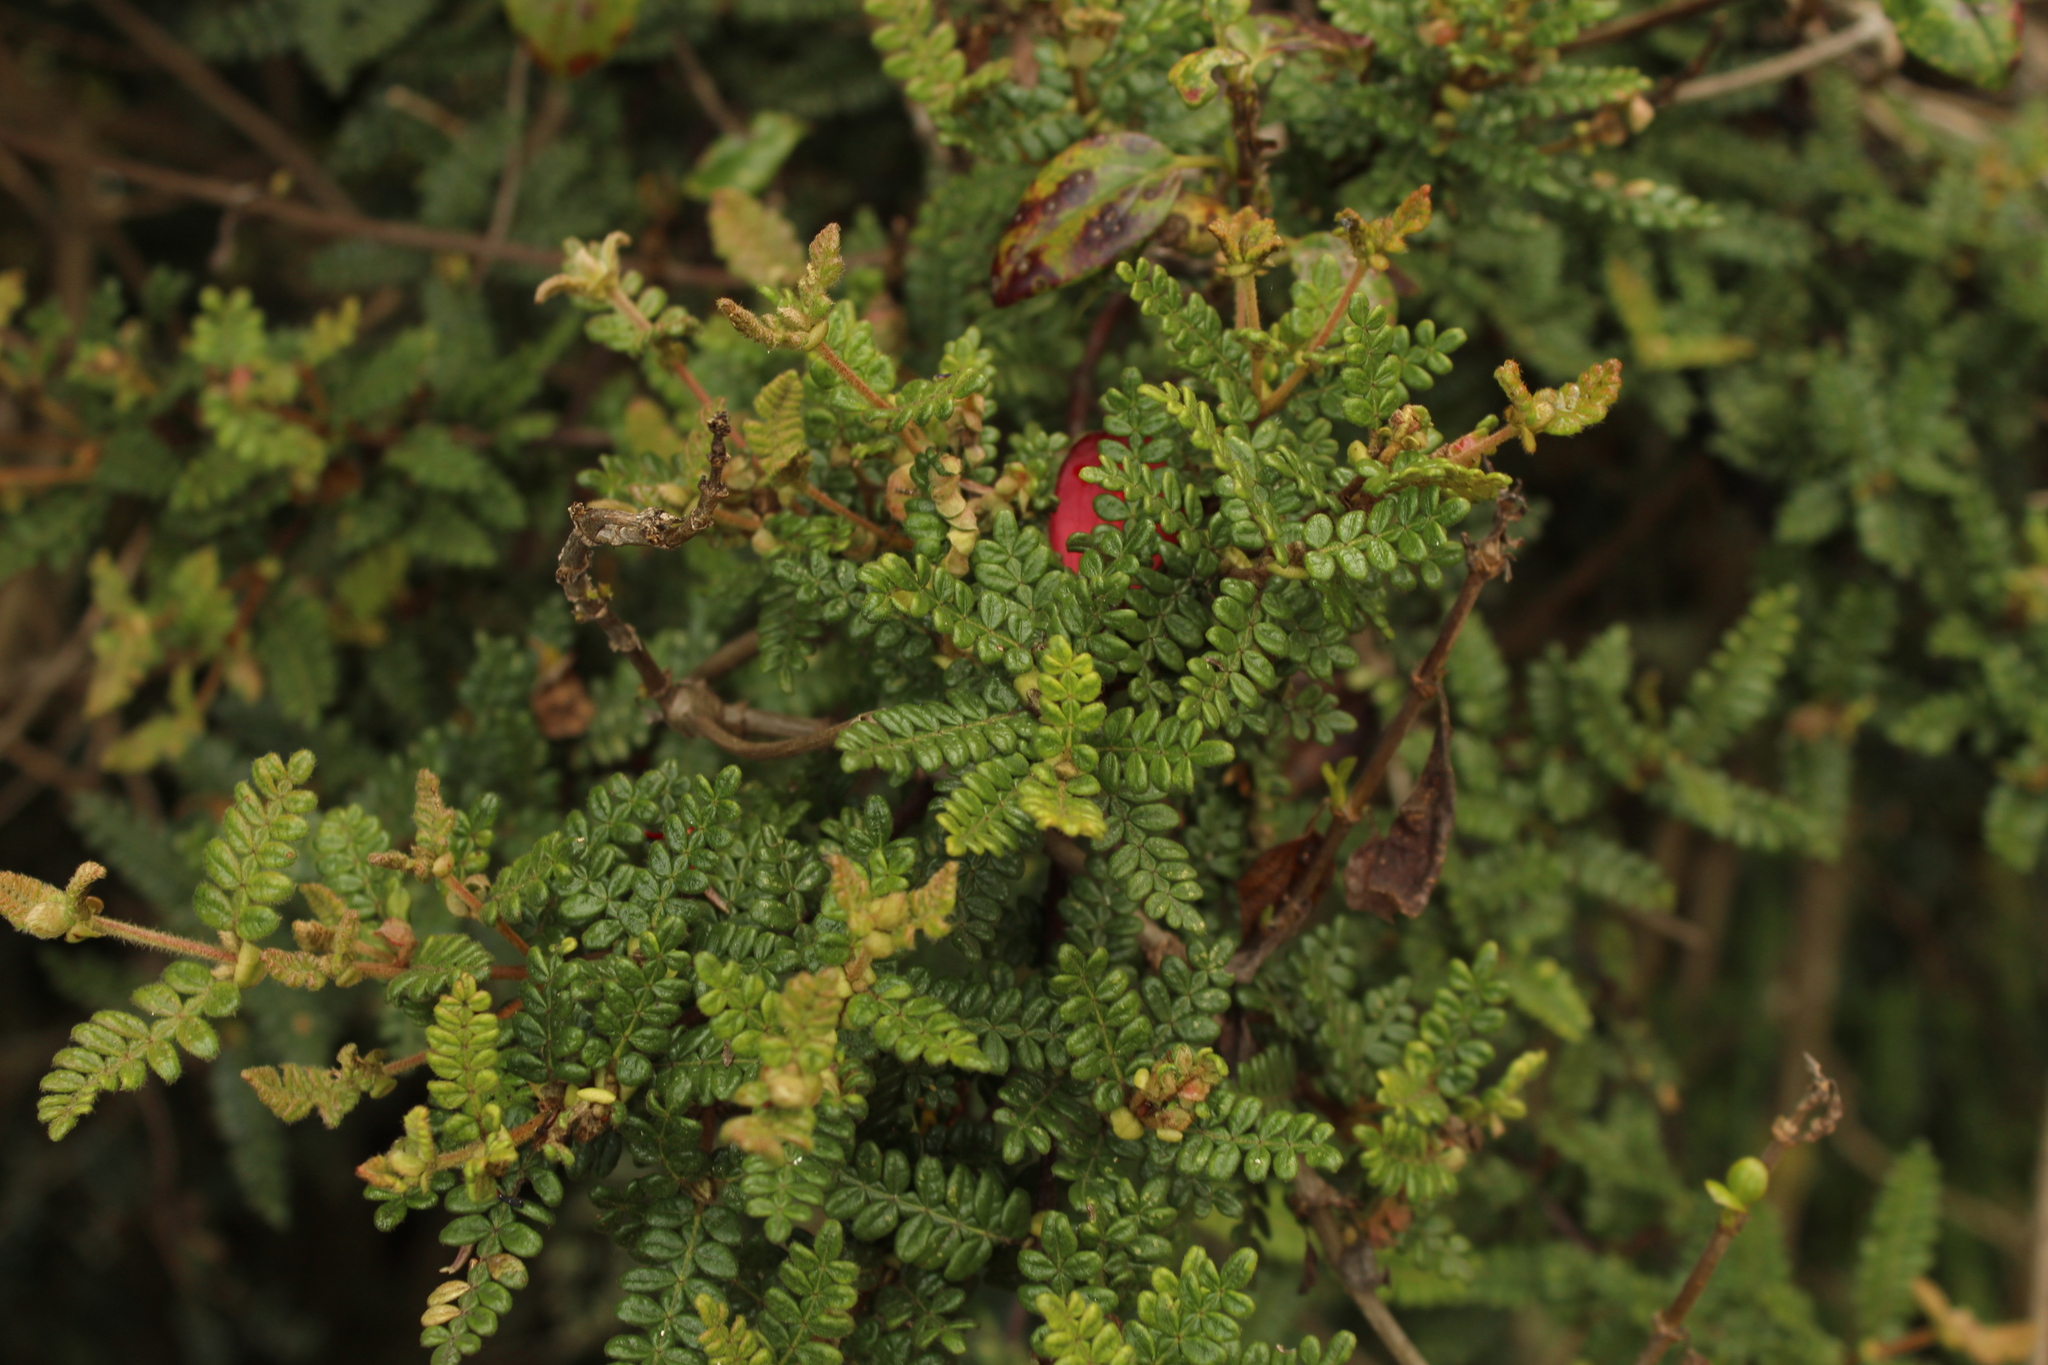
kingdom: Plantae
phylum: Tracheophyta
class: Magnoliopsida
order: Oxalidales
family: Cunoniaceae
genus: Weinmannia
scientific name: Weinmannia tomentosa
